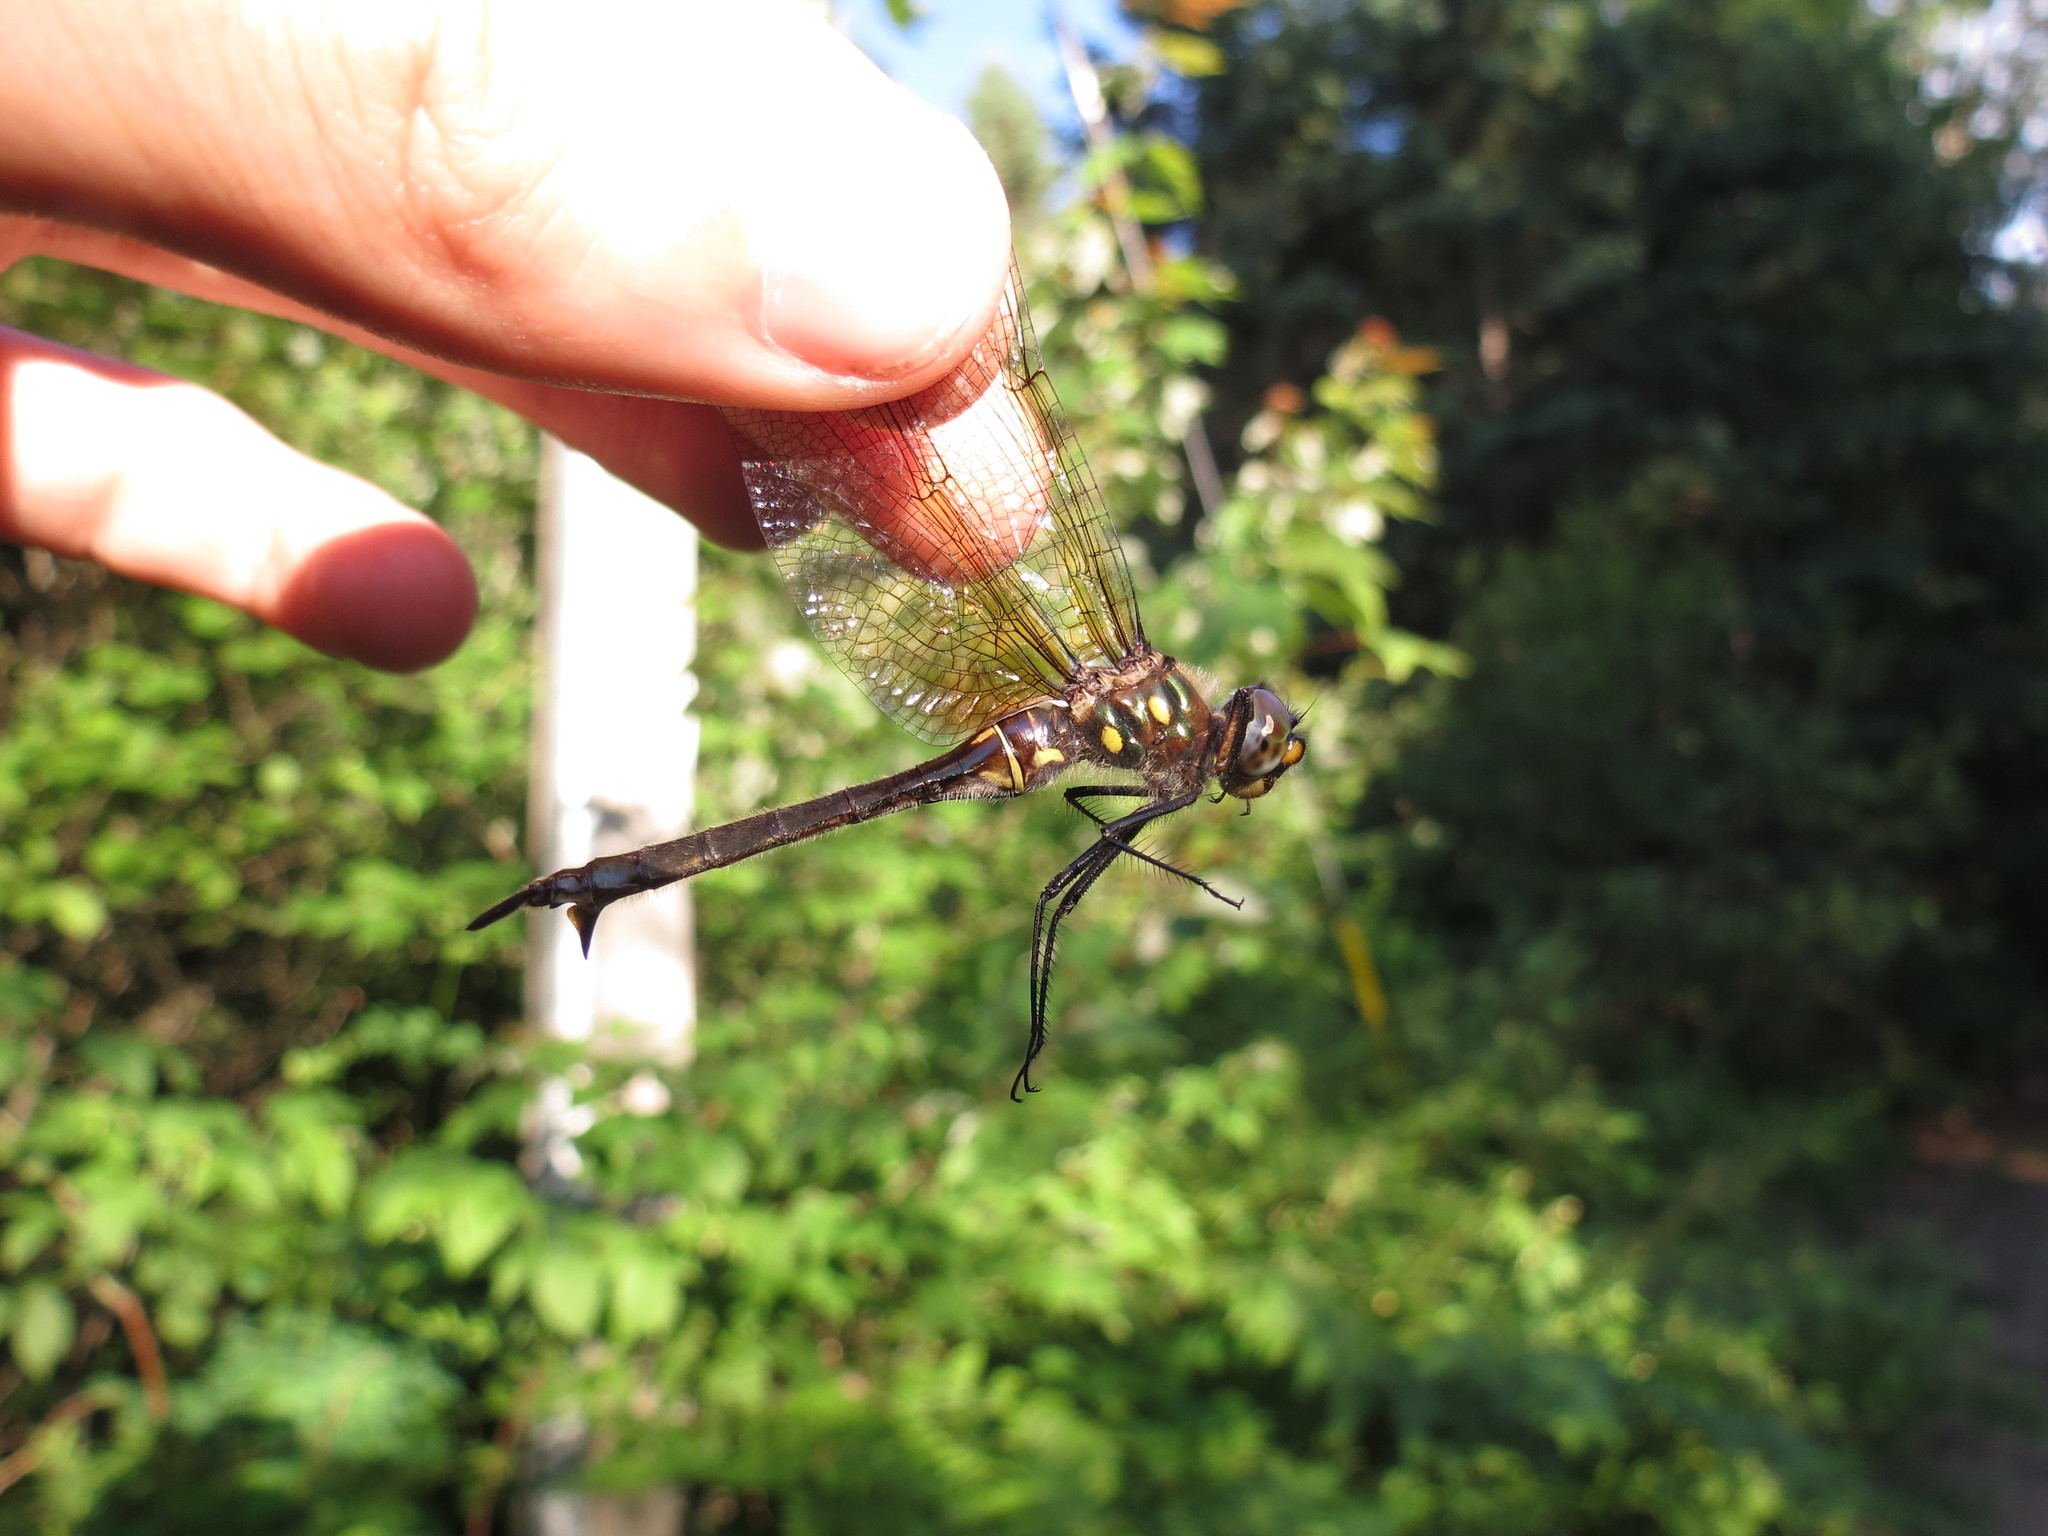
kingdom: Animalia
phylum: Arthropoda
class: Insecta
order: Odonata
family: Corduliidae
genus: Somatochlora
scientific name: Somatochlora minor
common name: Ocellated emerald
